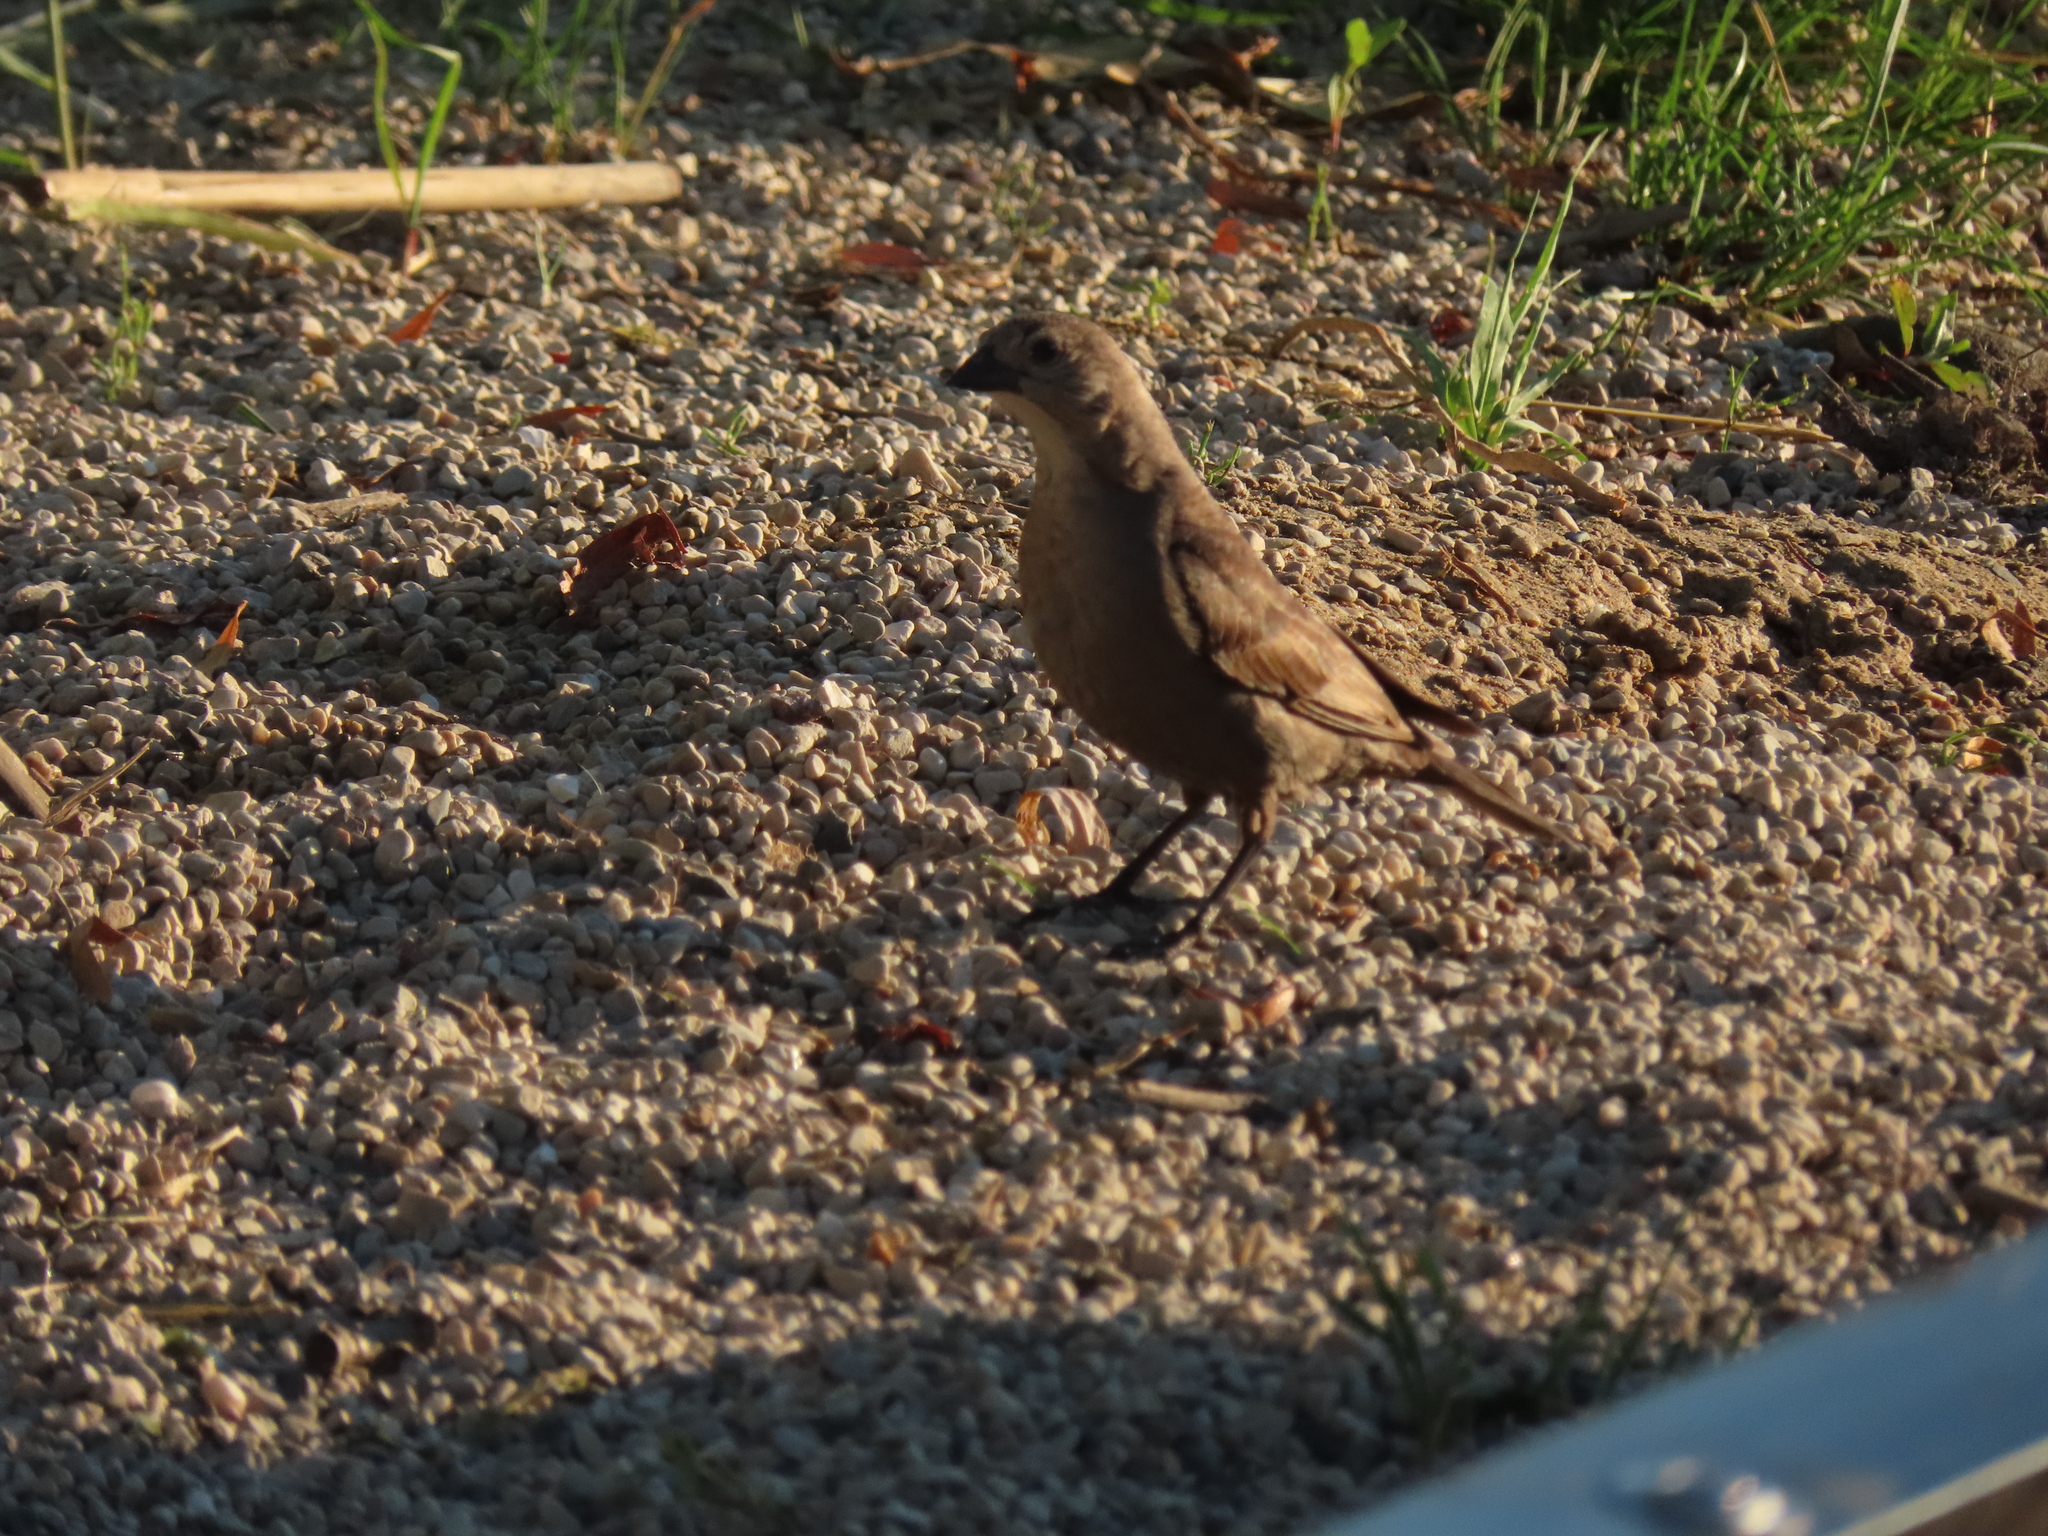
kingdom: Animalia
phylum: Chordata
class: Aves
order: Passeriformes
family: Icteridae
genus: Molothrus
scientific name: Molothrus ater
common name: Brown-headed cowbird
